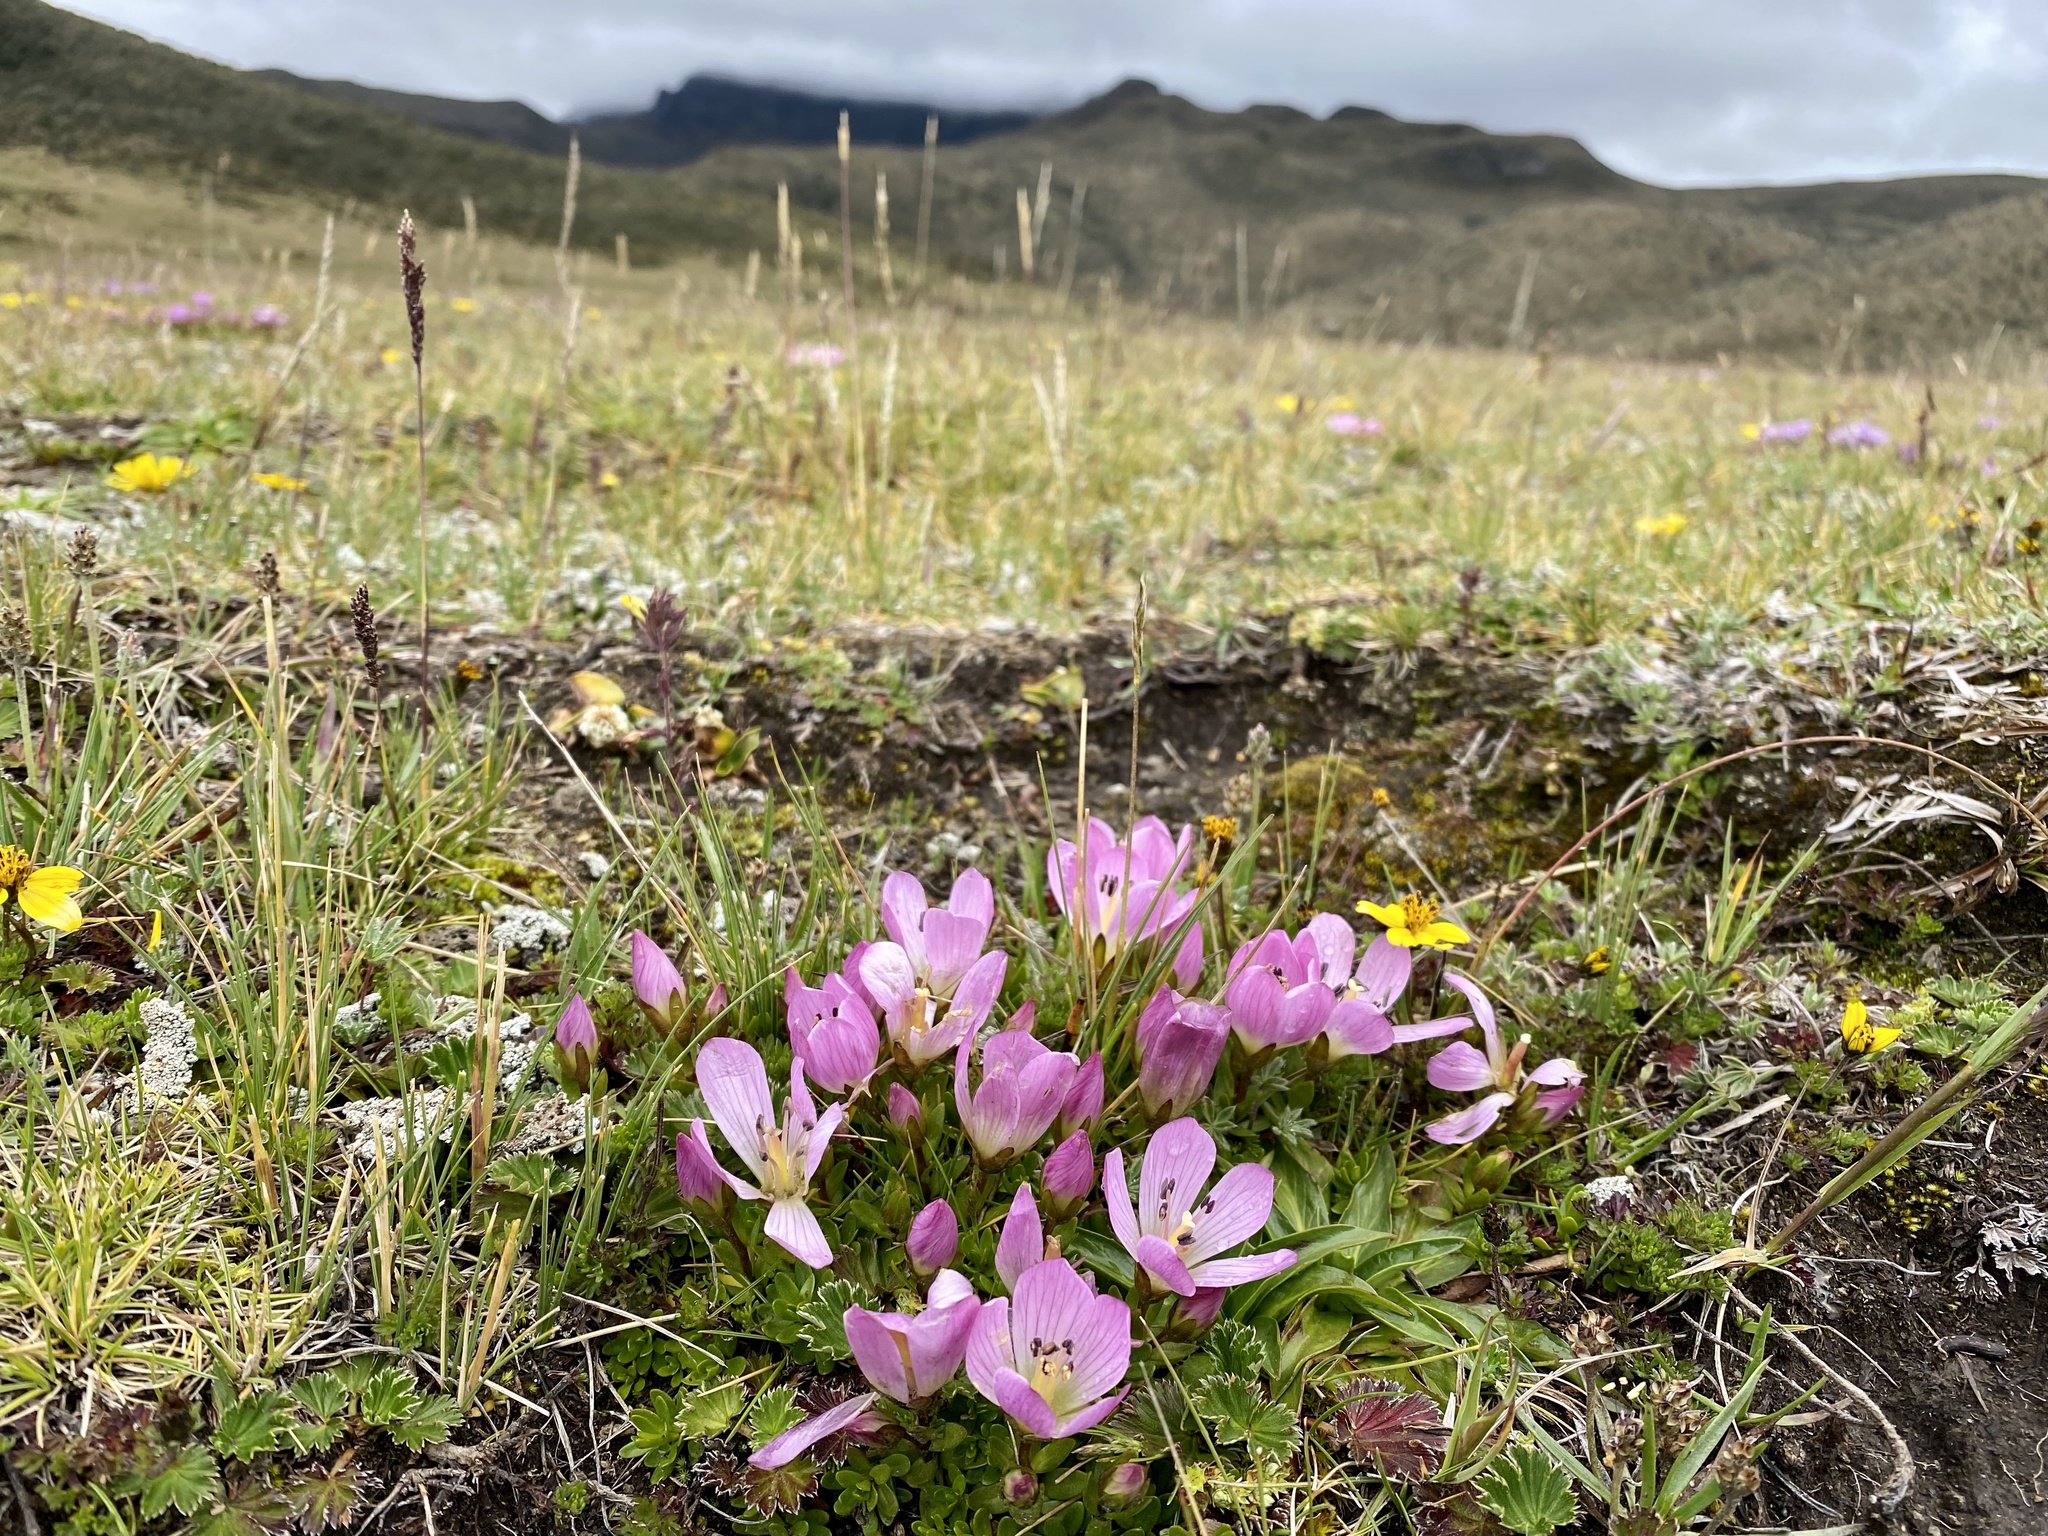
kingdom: Plantae
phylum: Tracheophyta
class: Magnoliopsida
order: Gentianales
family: Gentianaceae
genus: Gentianella
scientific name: Gentianella cerastioides
